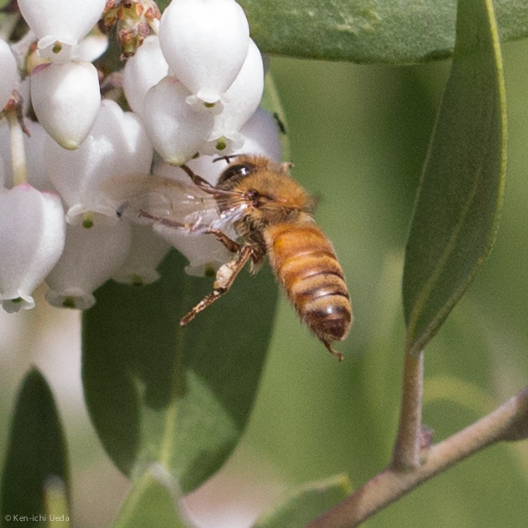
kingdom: Animalia
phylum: Arthropoda
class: Insecta
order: Hymenoptera
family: Apidae
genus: Apis
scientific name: Apis mellifera
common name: Honey bee
